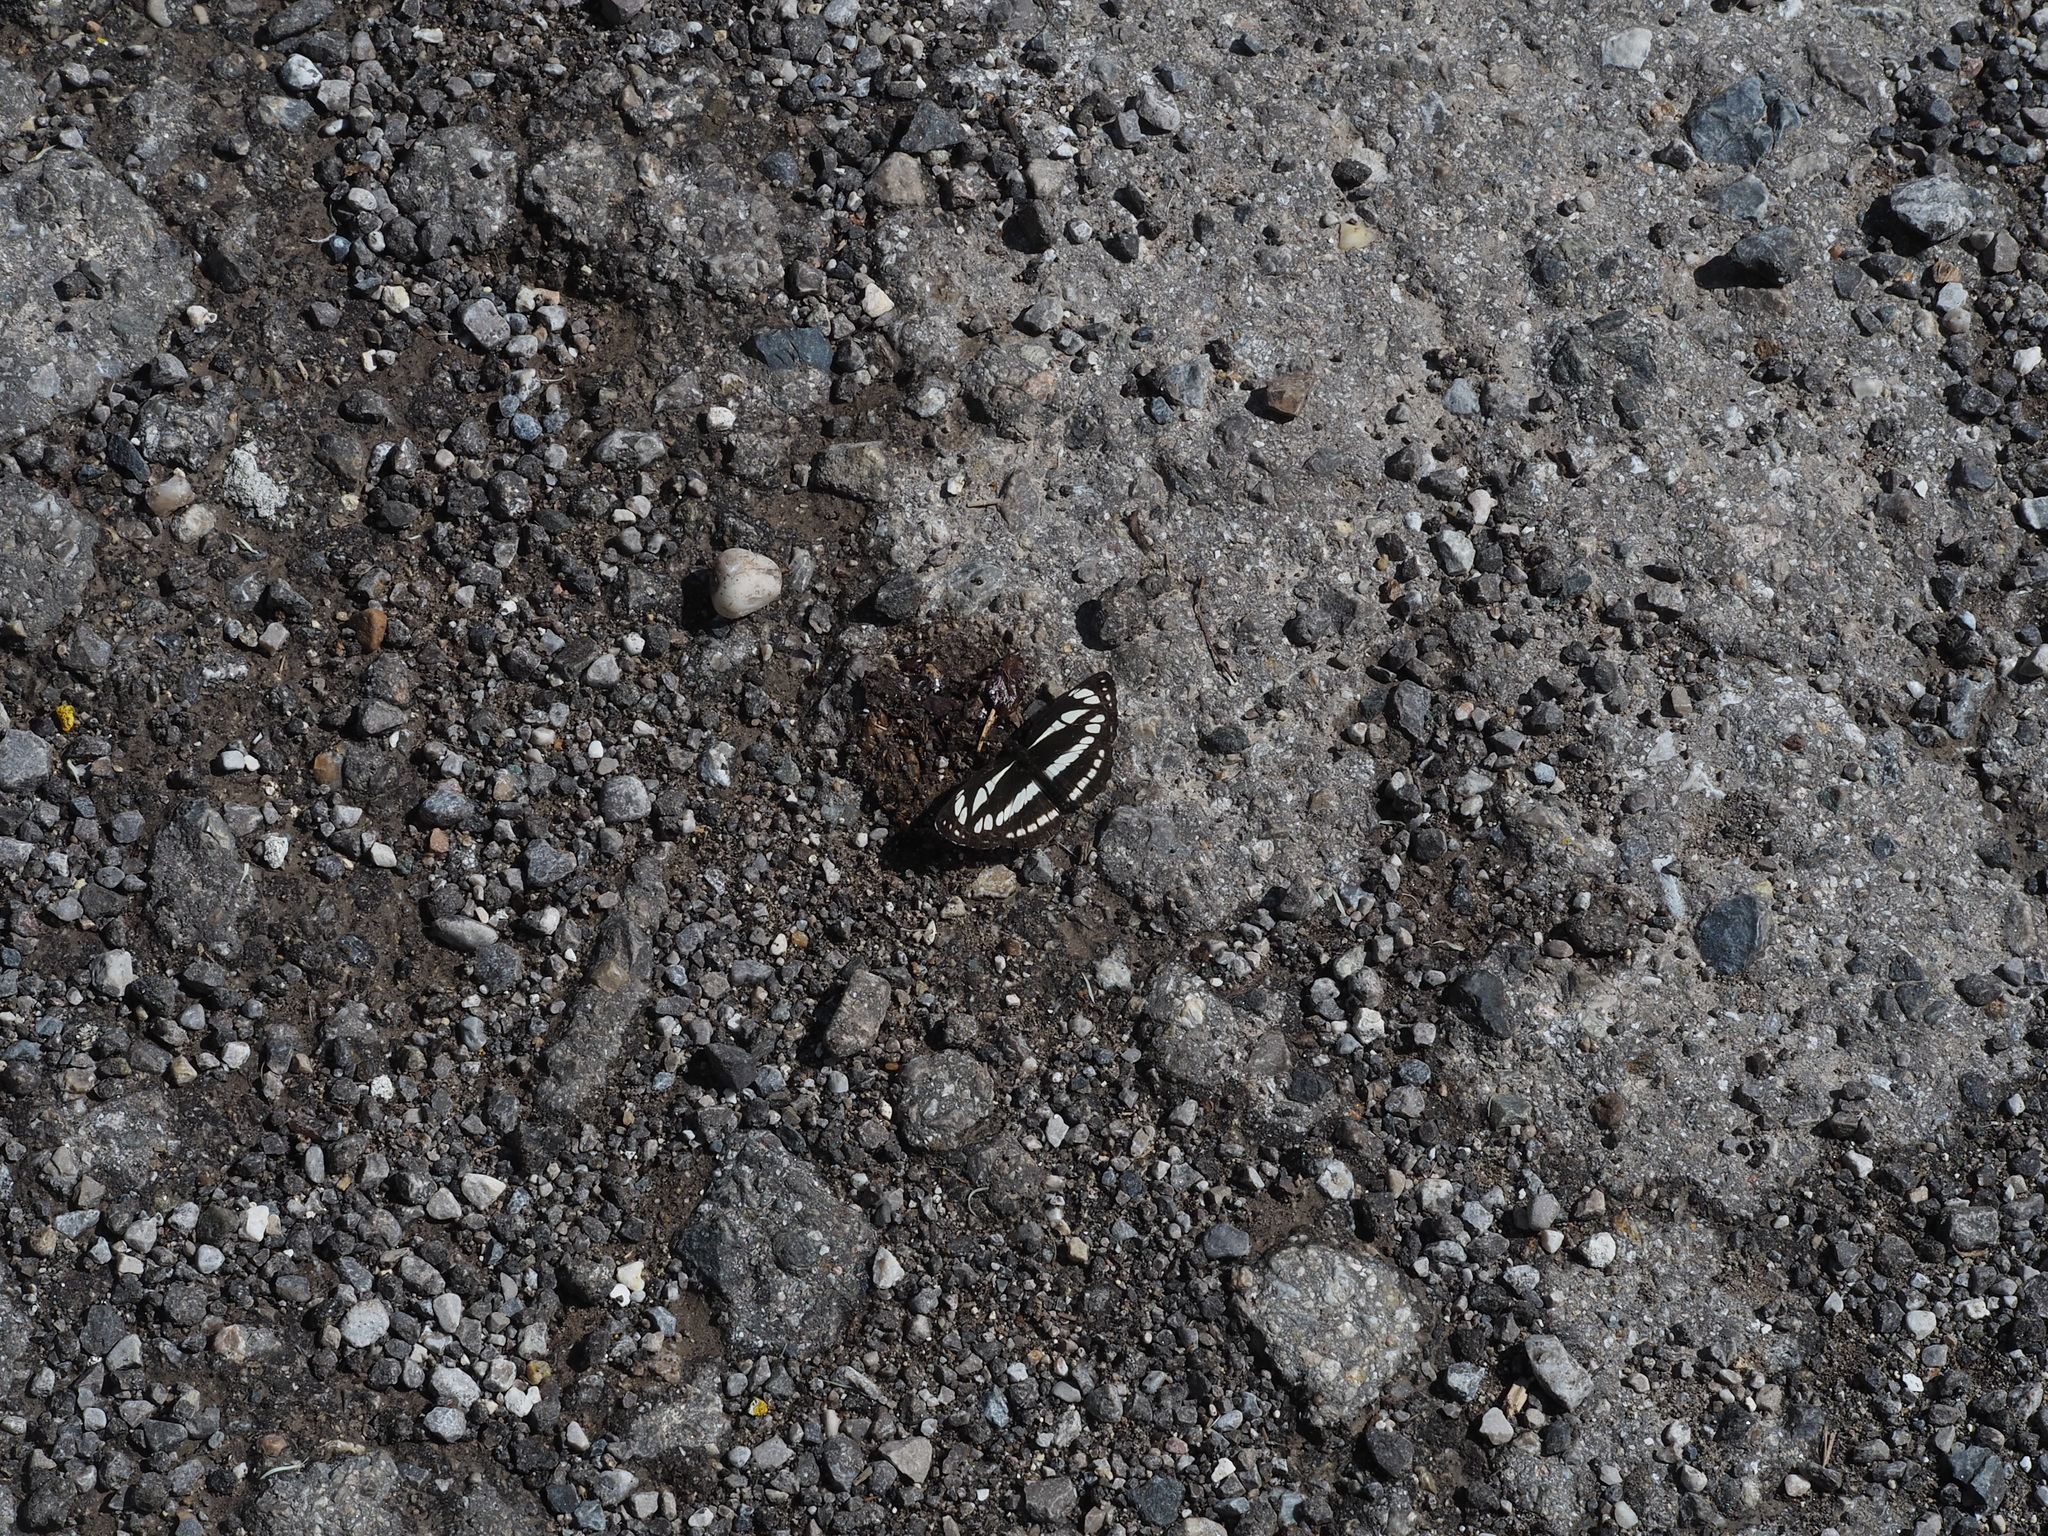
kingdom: Animalia
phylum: Arthropoda
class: Insecta
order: Lepidoptera
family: Nymphalidae
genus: Neptis
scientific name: Neptis sappho
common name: Common glider
